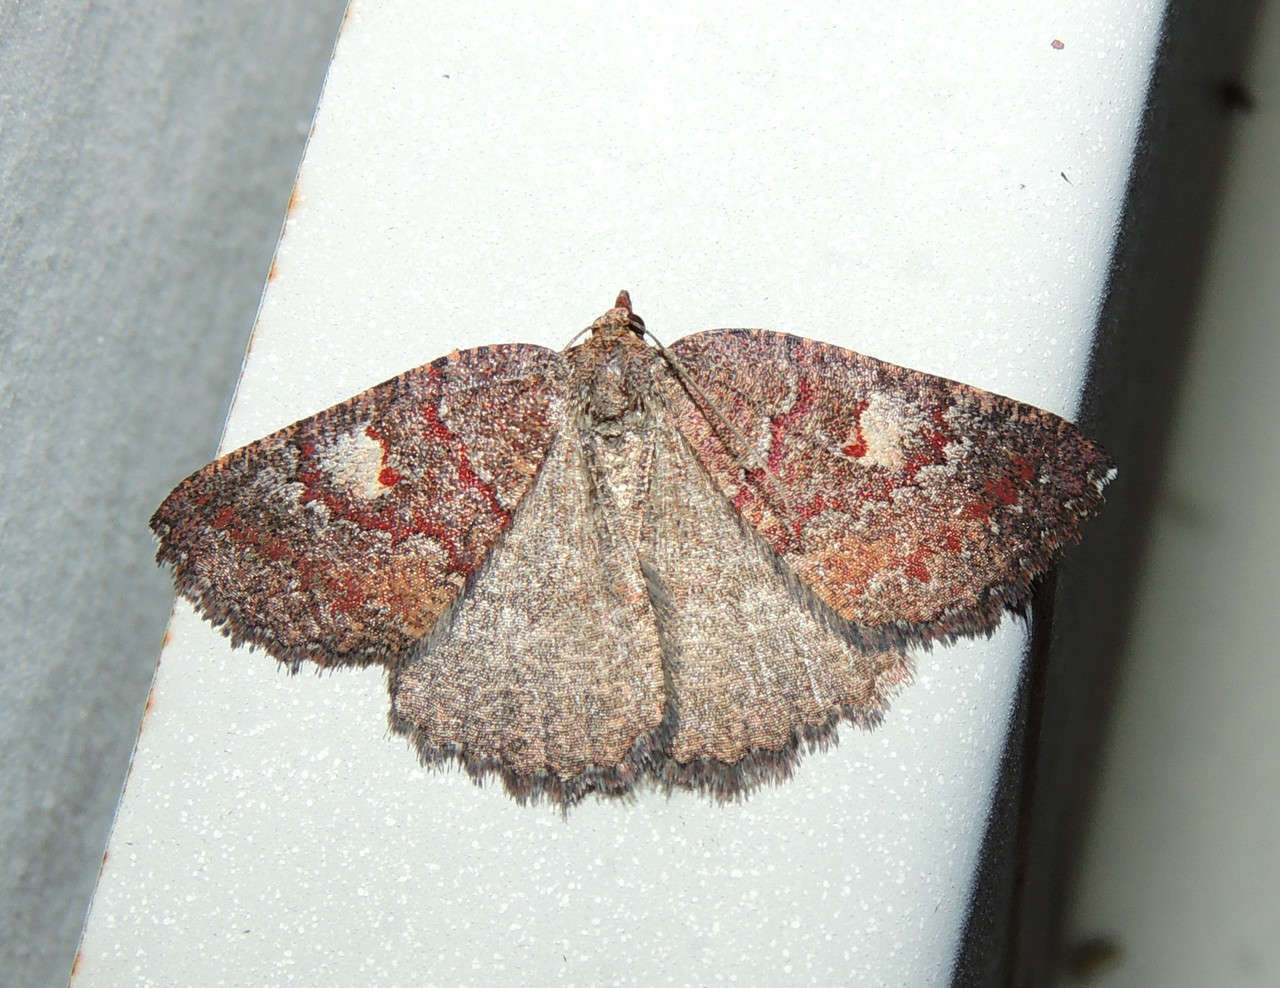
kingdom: Animalia
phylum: Arthropoda
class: Insecta
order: Lepidoptera
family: Geometridae
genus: Apodasmia
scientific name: Apodasmia rufonigraria
